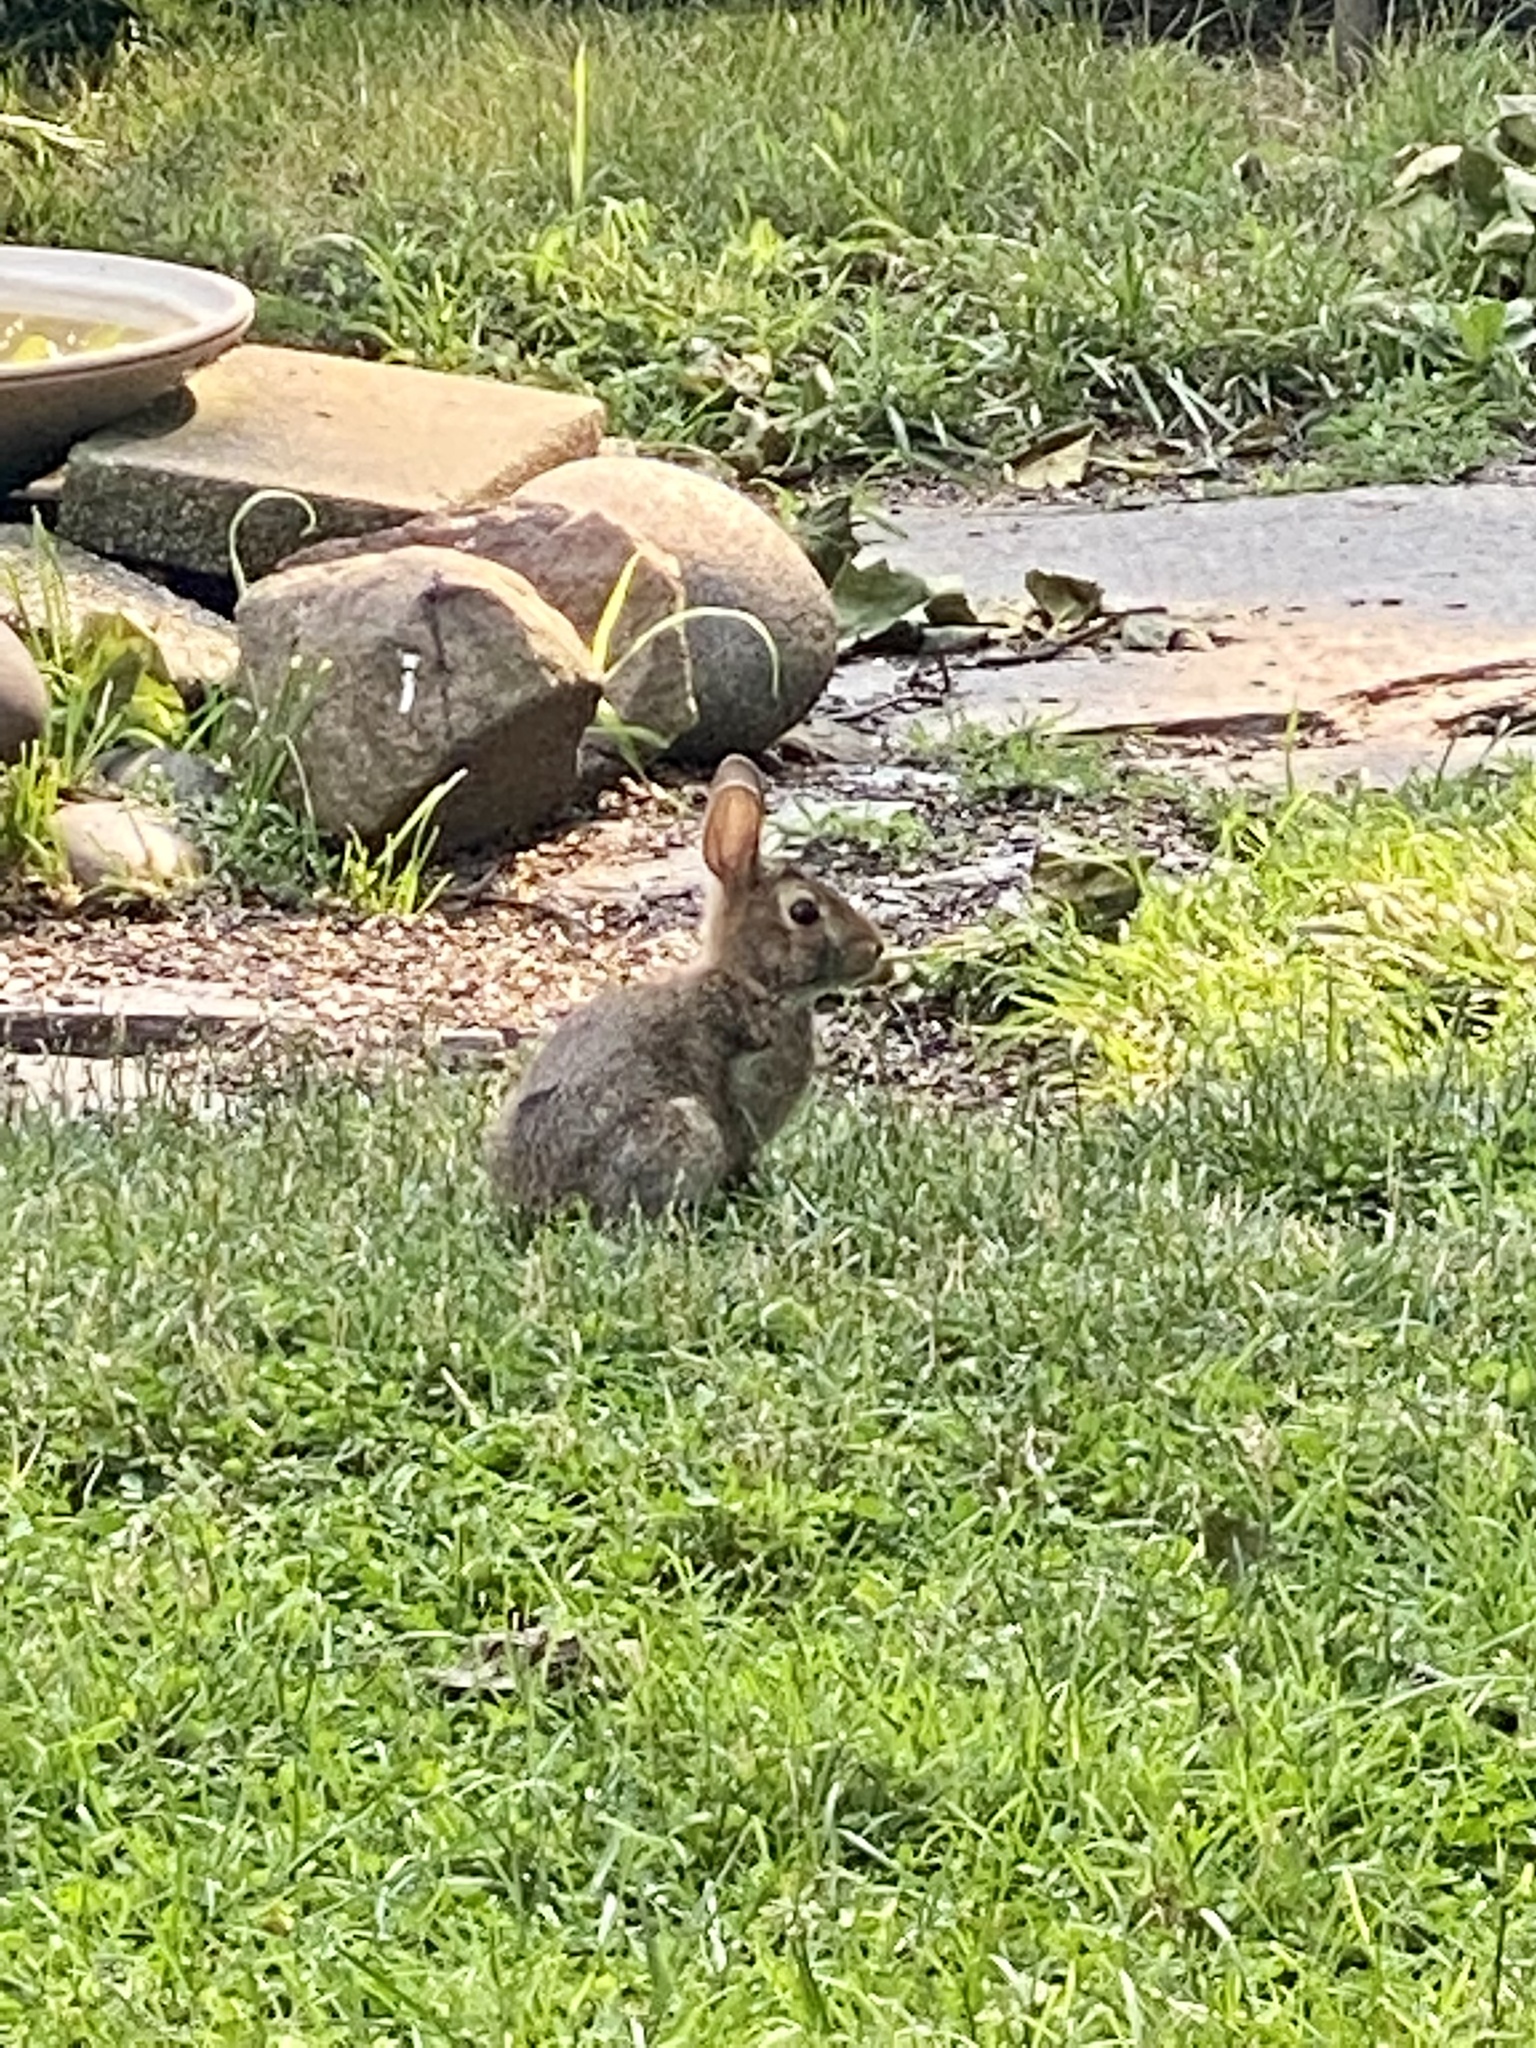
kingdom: Animalia
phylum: Chordata
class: Mammalia
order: Lagomorpha
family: Leporidae
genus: Sylvilagus
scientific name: Sylvilagus floridanus
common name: Eastern cottontail
